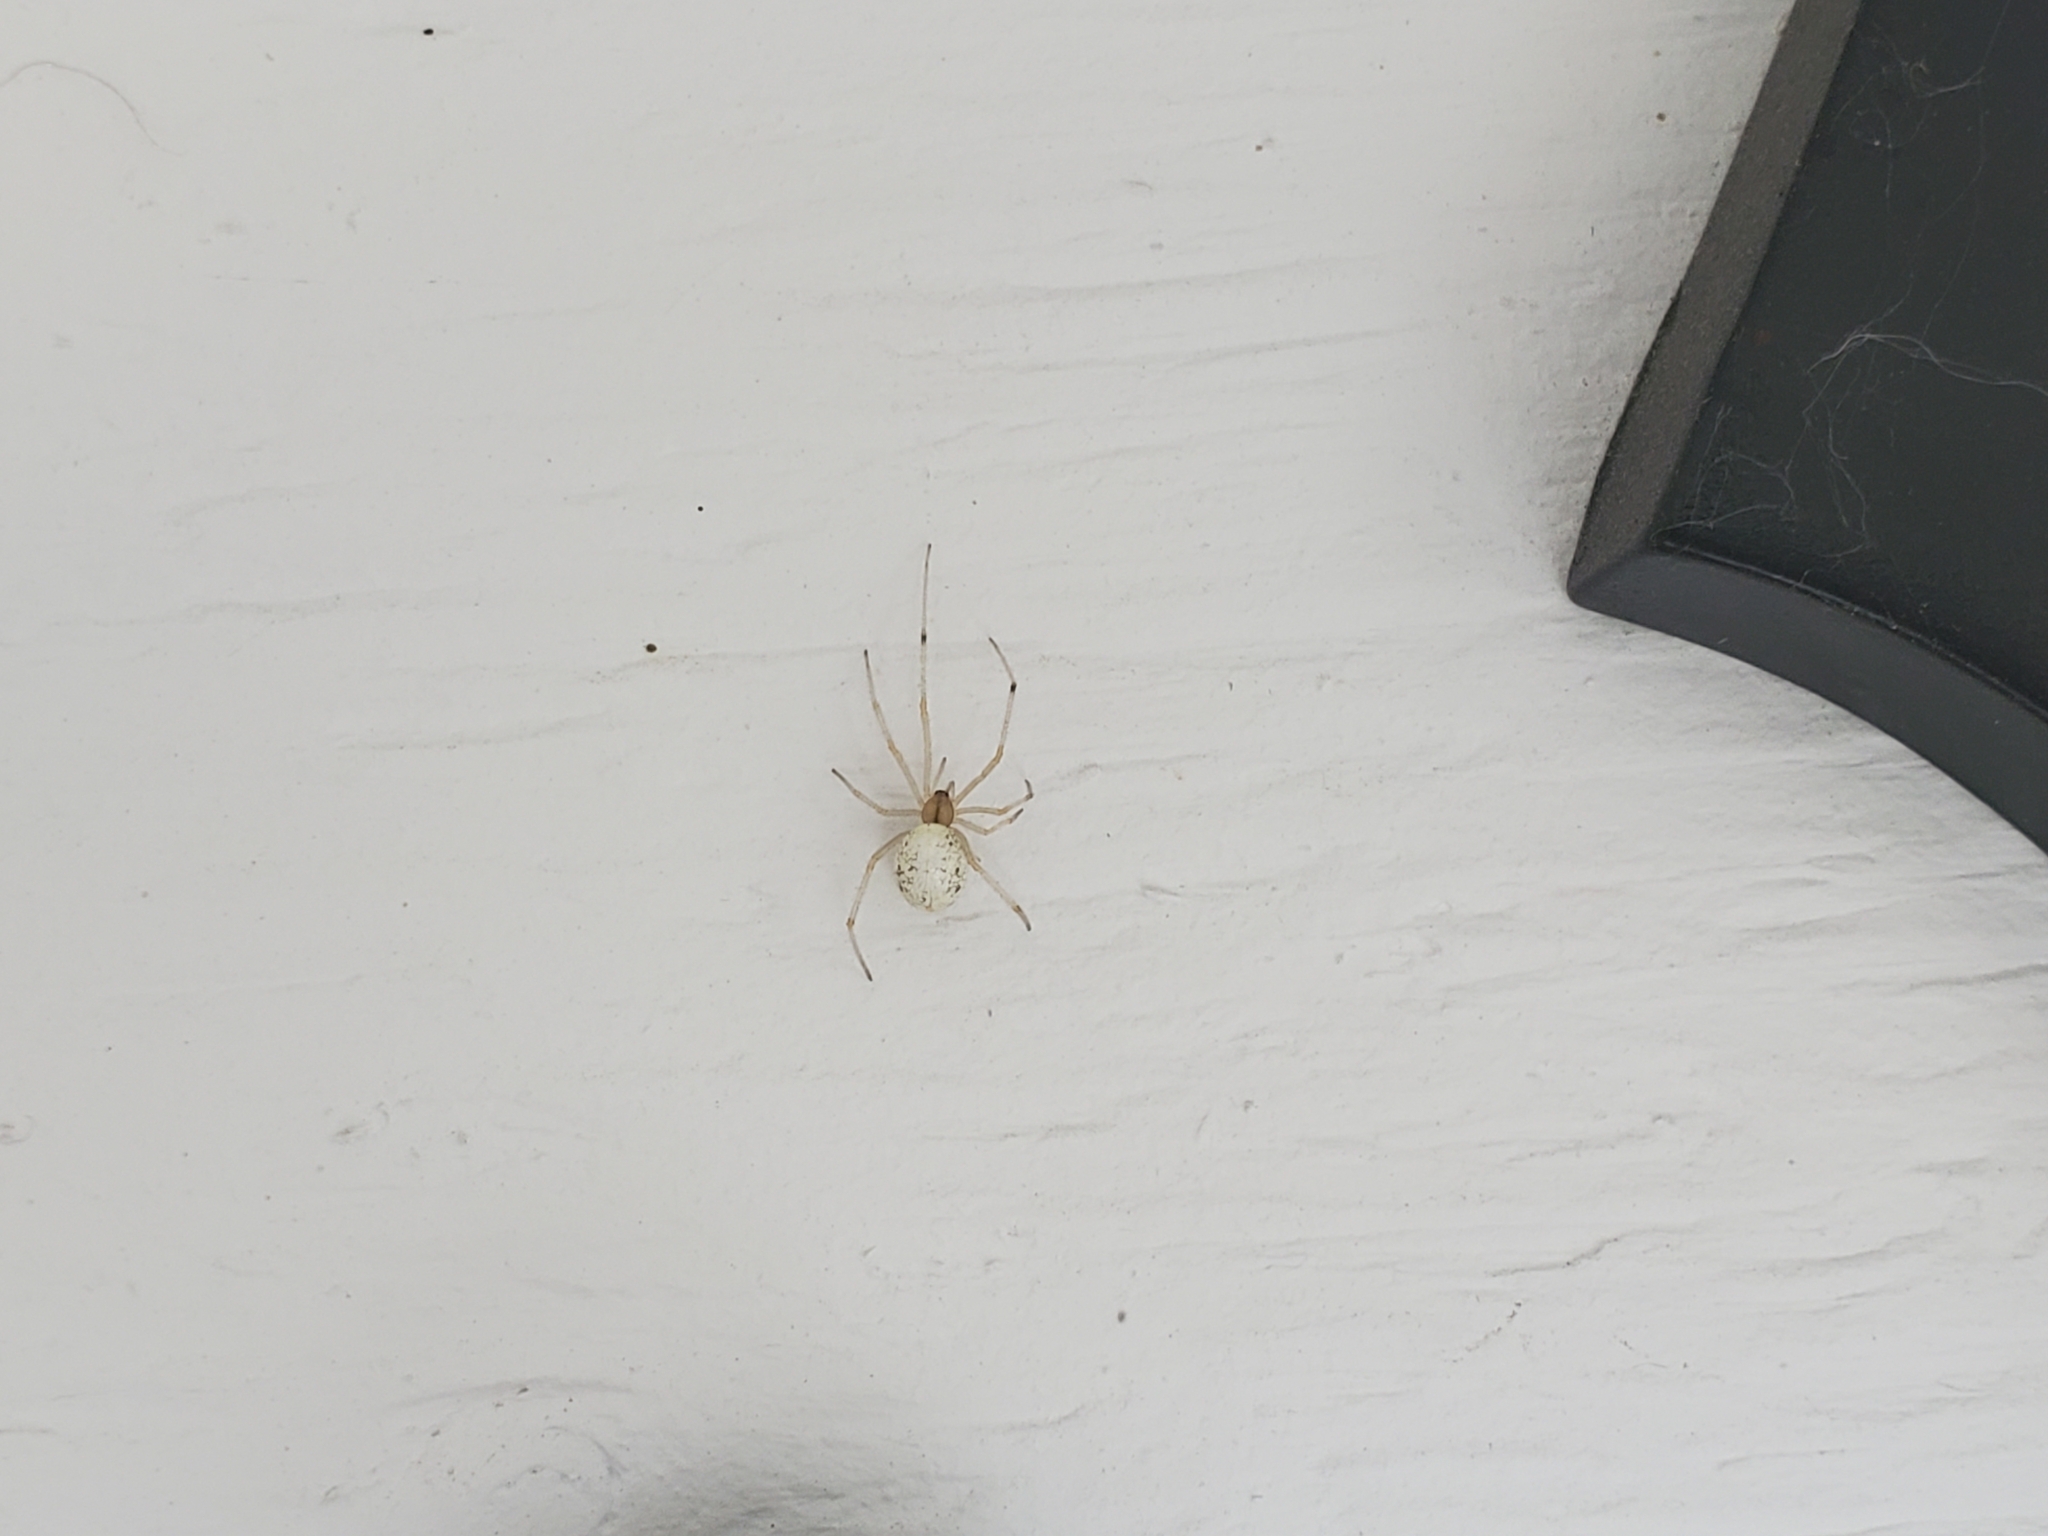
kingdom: Animalia
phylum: Arthropoda
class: Arachnida
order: Araneae
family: Theridiidae
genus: Enoplognatha
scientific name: Enoplognatha ovata
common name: Common candy-striped spider
